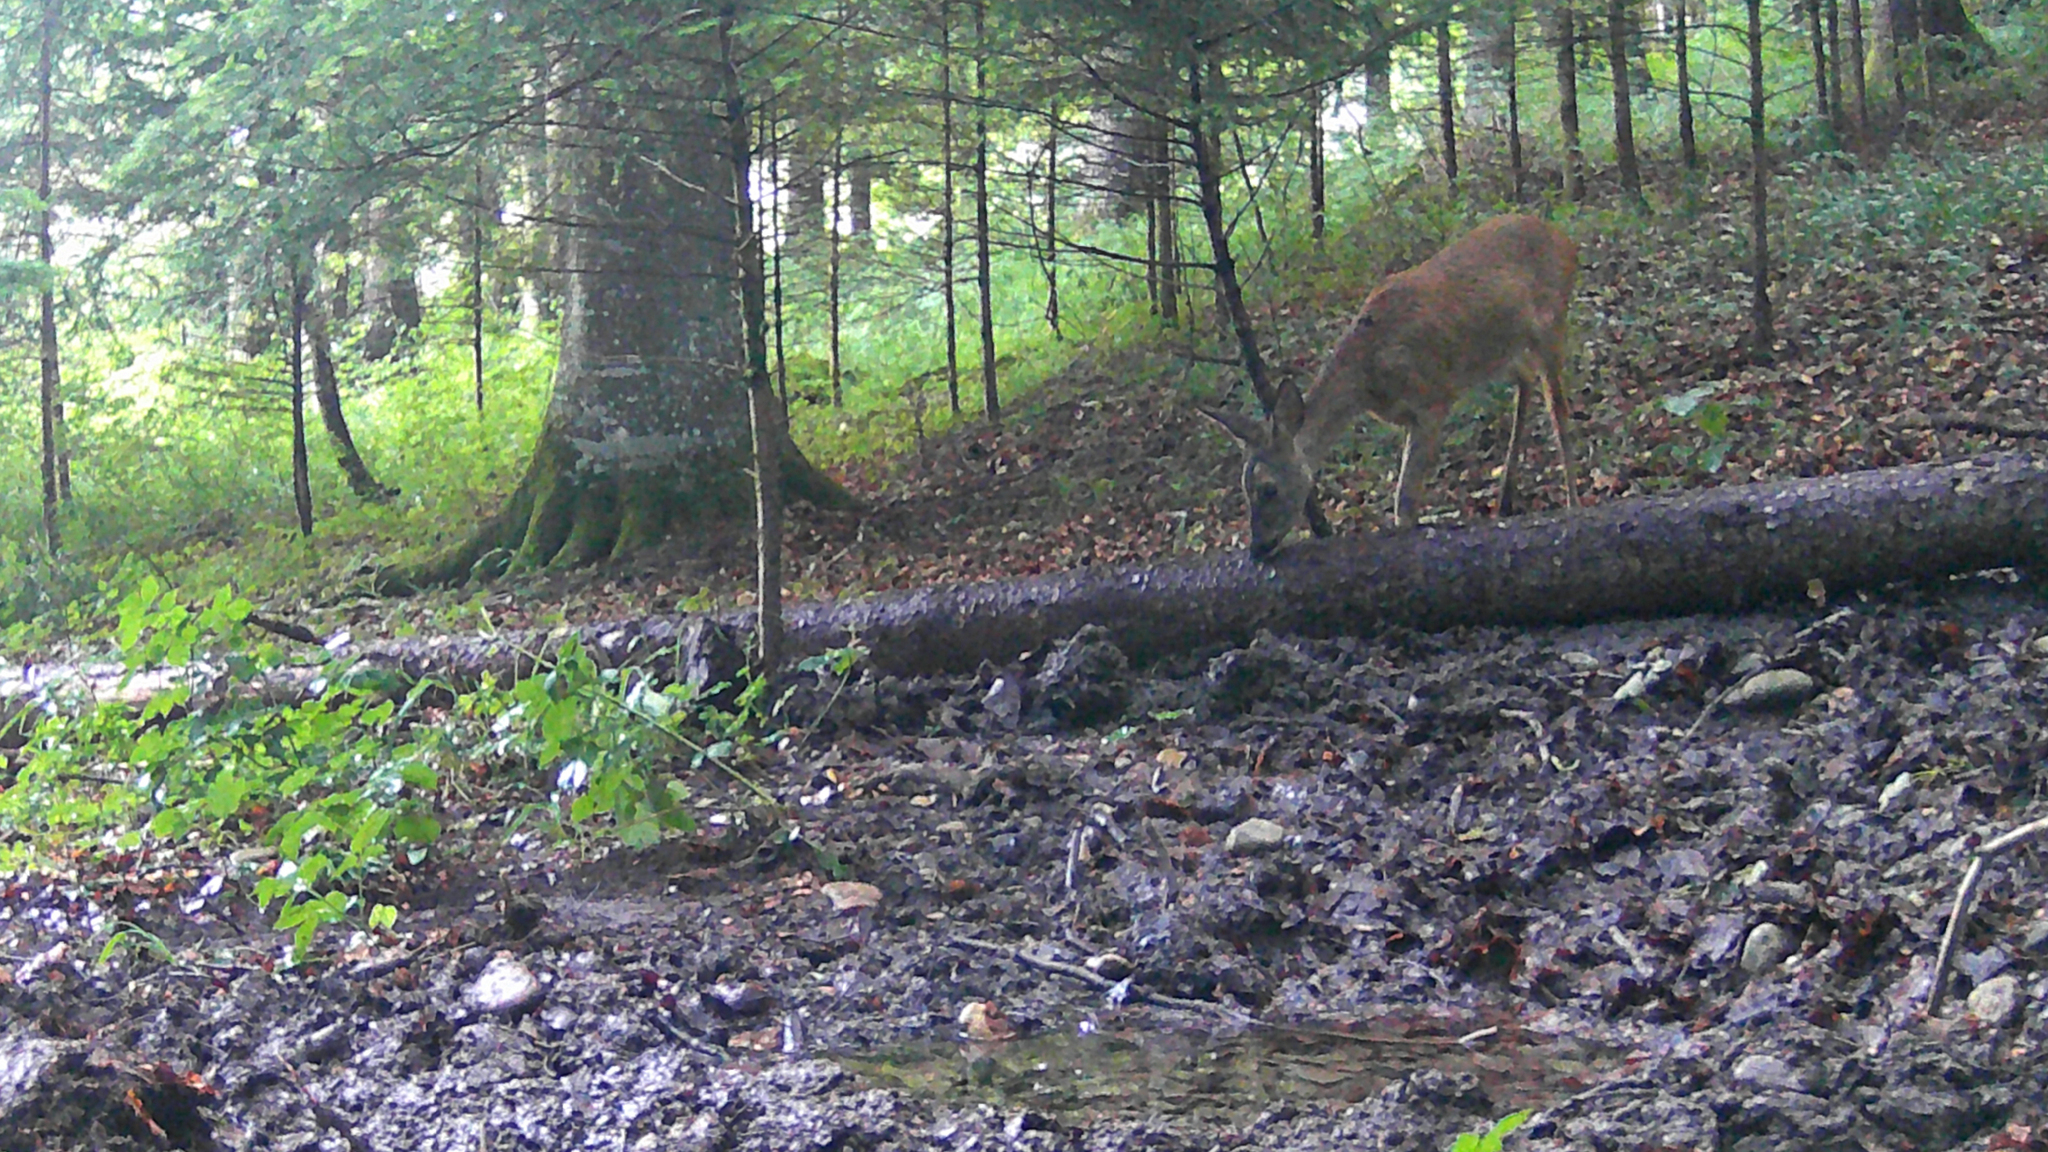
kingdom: Animalia
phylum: Chordata
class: Mammalia
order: Artiodactyla
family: Cervidae
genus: Capreolus
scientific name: Capreolus capreolus
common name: Western roe deer
